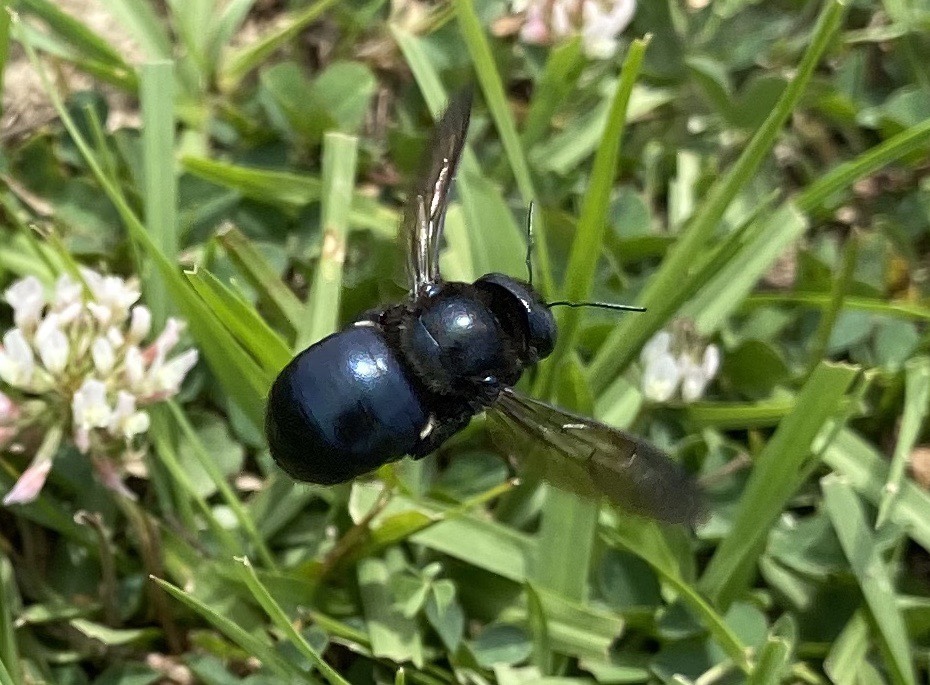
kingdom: Animalia
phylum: Arthropoda
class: Insecta
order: Hymenoptera
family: Apidae
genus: Xylocopa
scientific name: Xylocopa micans
